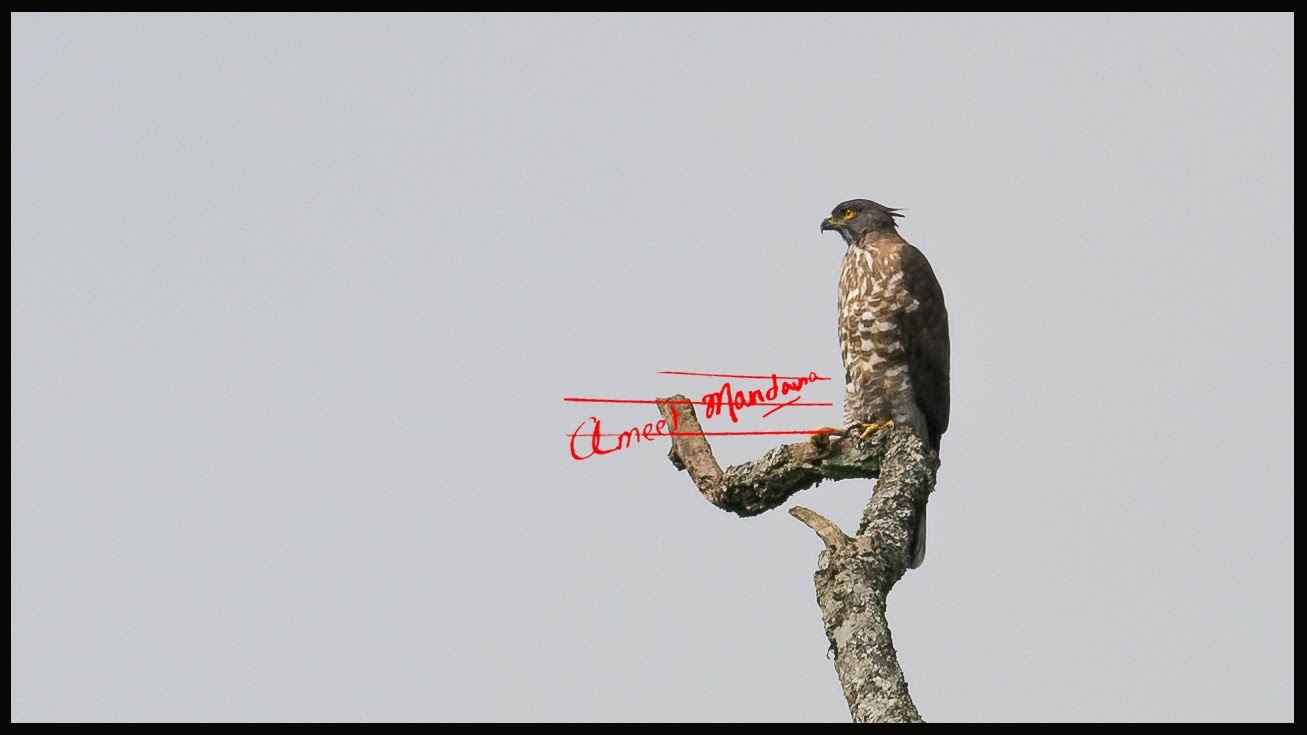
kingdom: Animalia
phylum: Chordata
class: Aves
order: Accipitriformes
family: Accipitridae
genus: Accipiter
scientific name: Accipiter trivirgatus
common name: Crested goshawk
